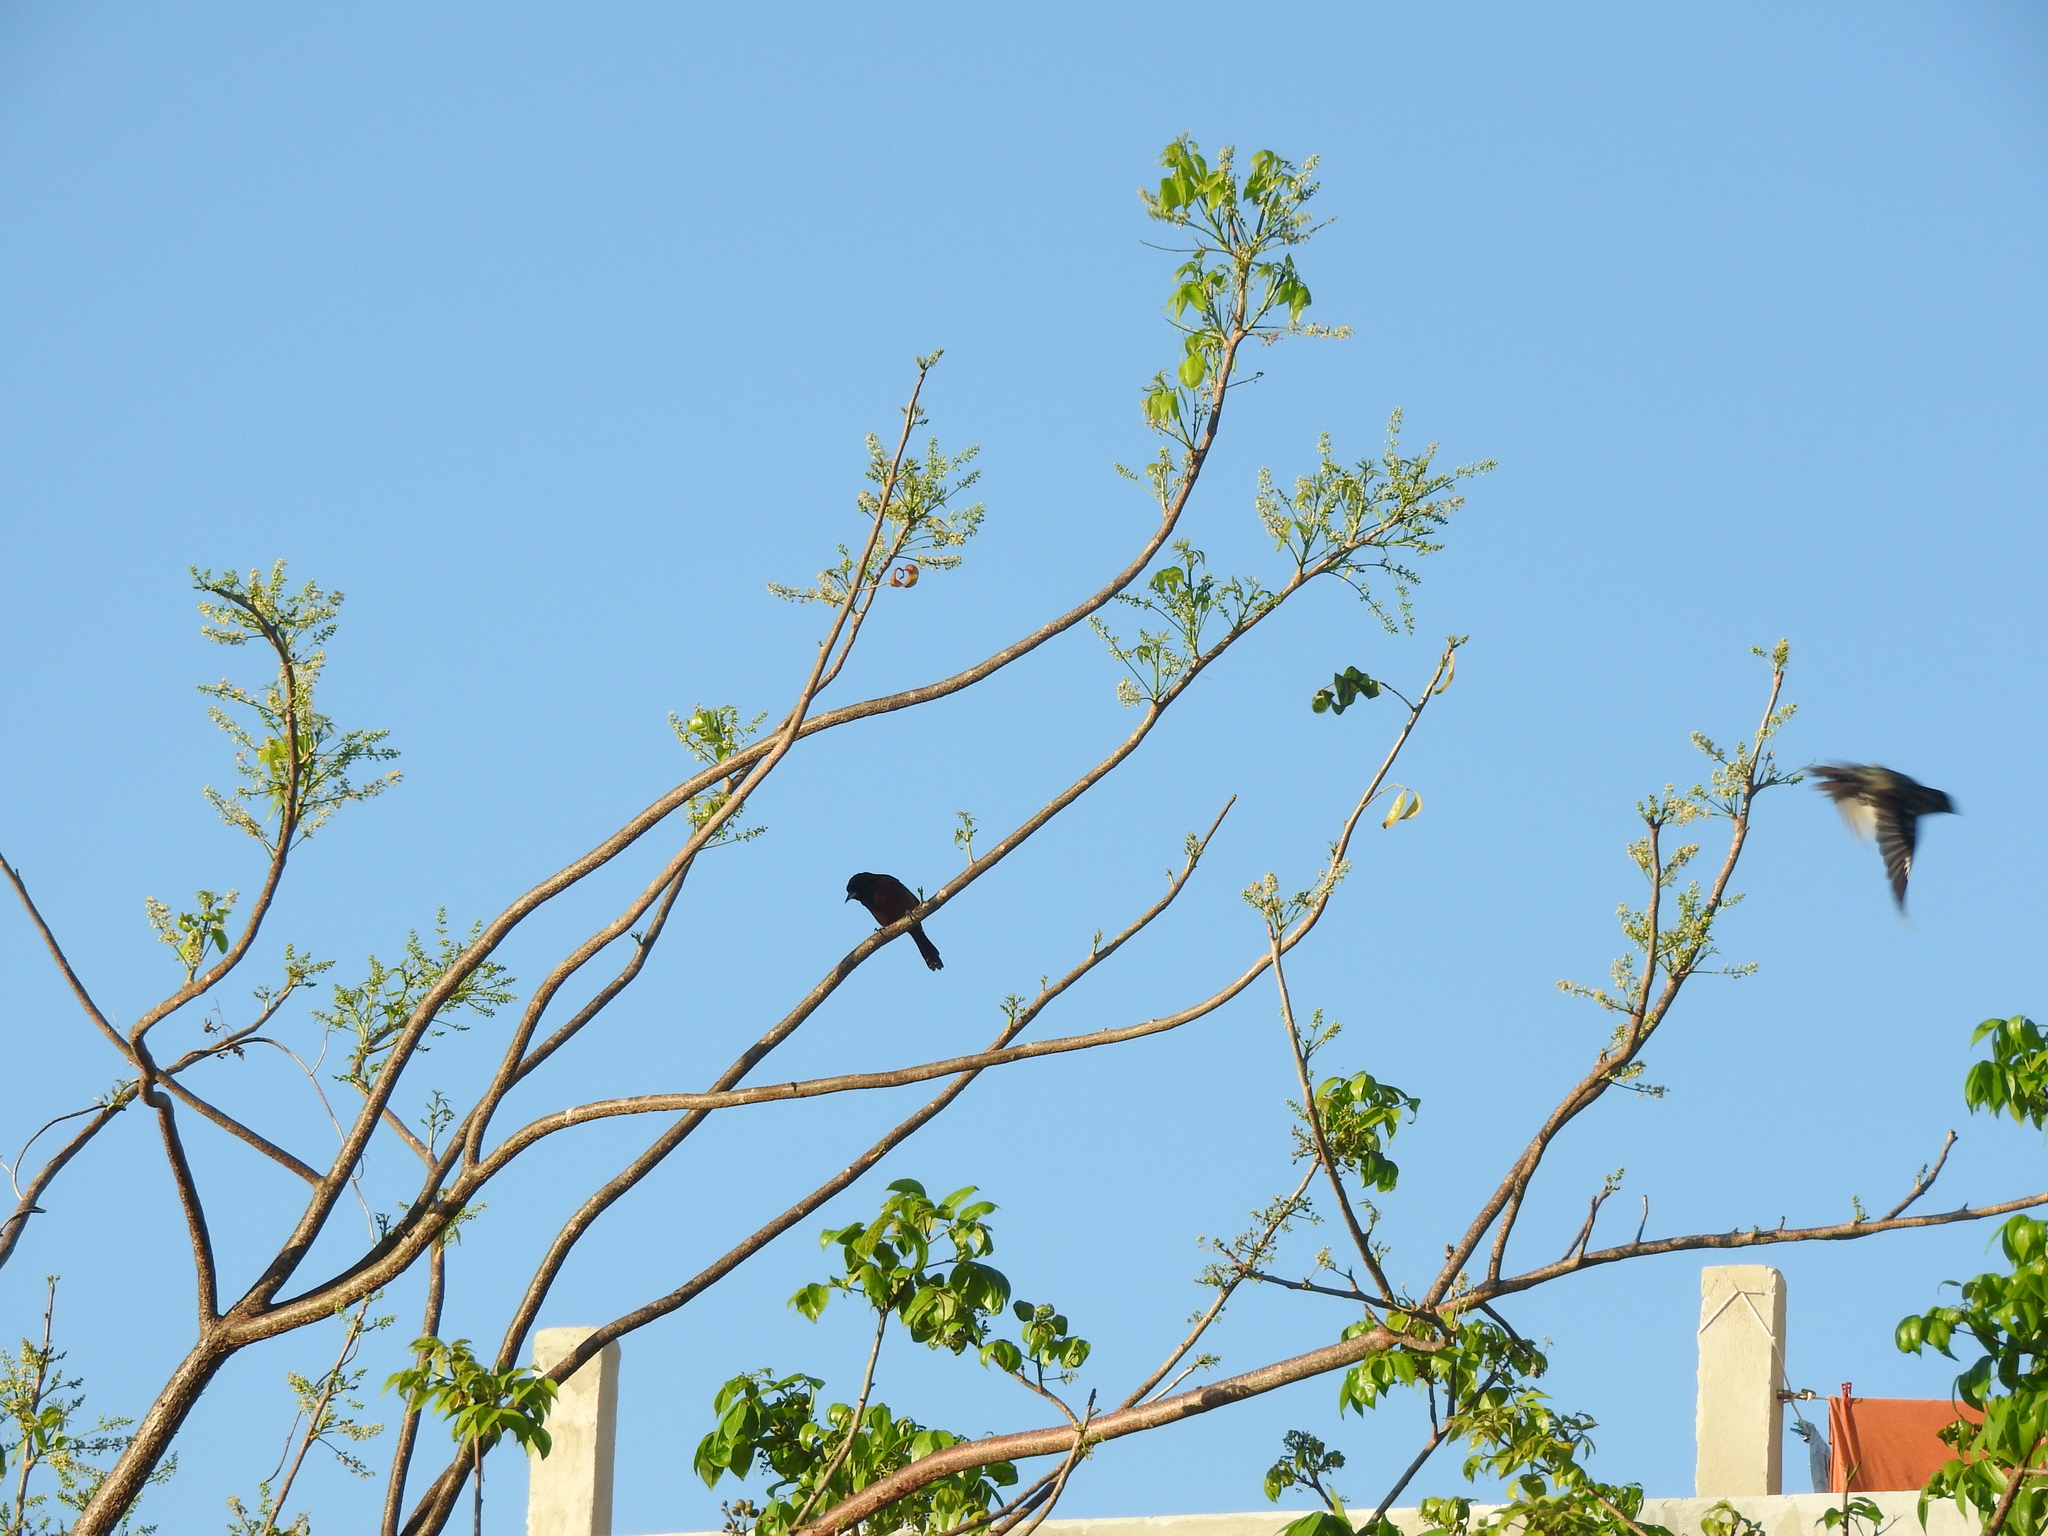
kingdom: Animalia
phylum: Chordata
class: Aves
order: Passeriformes
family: Icteridae
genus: Icterus
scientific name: Icterus spurius
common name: Orchard oriole
